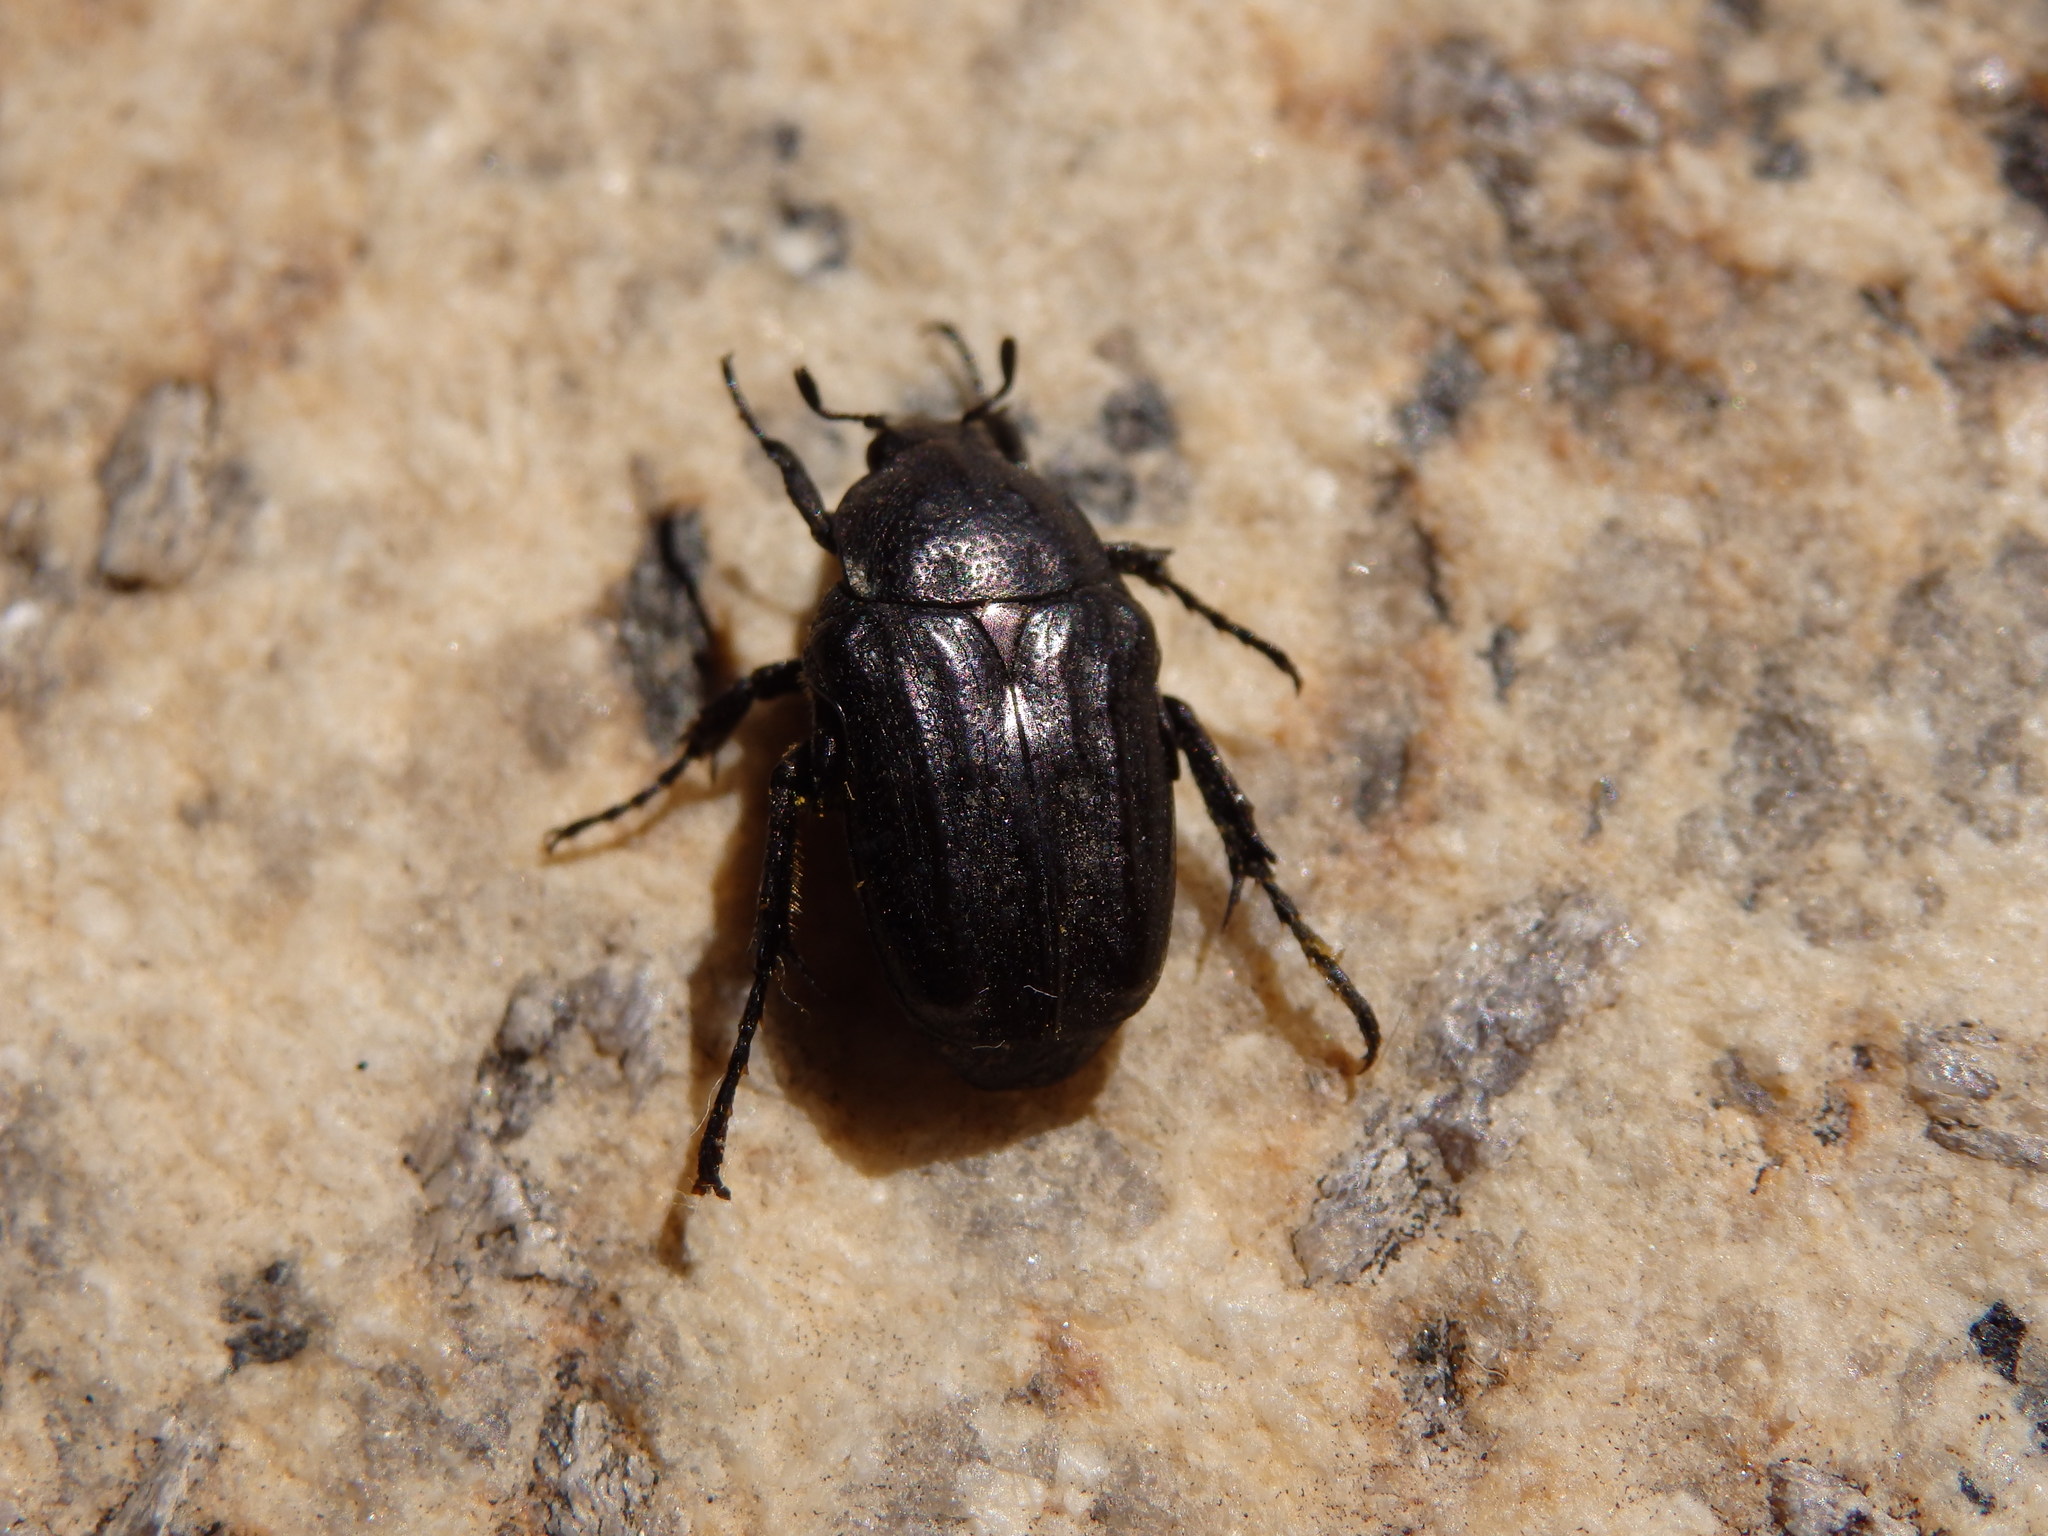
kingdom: Animalia
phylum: Arthropoda
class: Insecta
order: Coleoptera
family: Scarabaeidae
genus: Protaetia
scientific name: Protaetia morio
